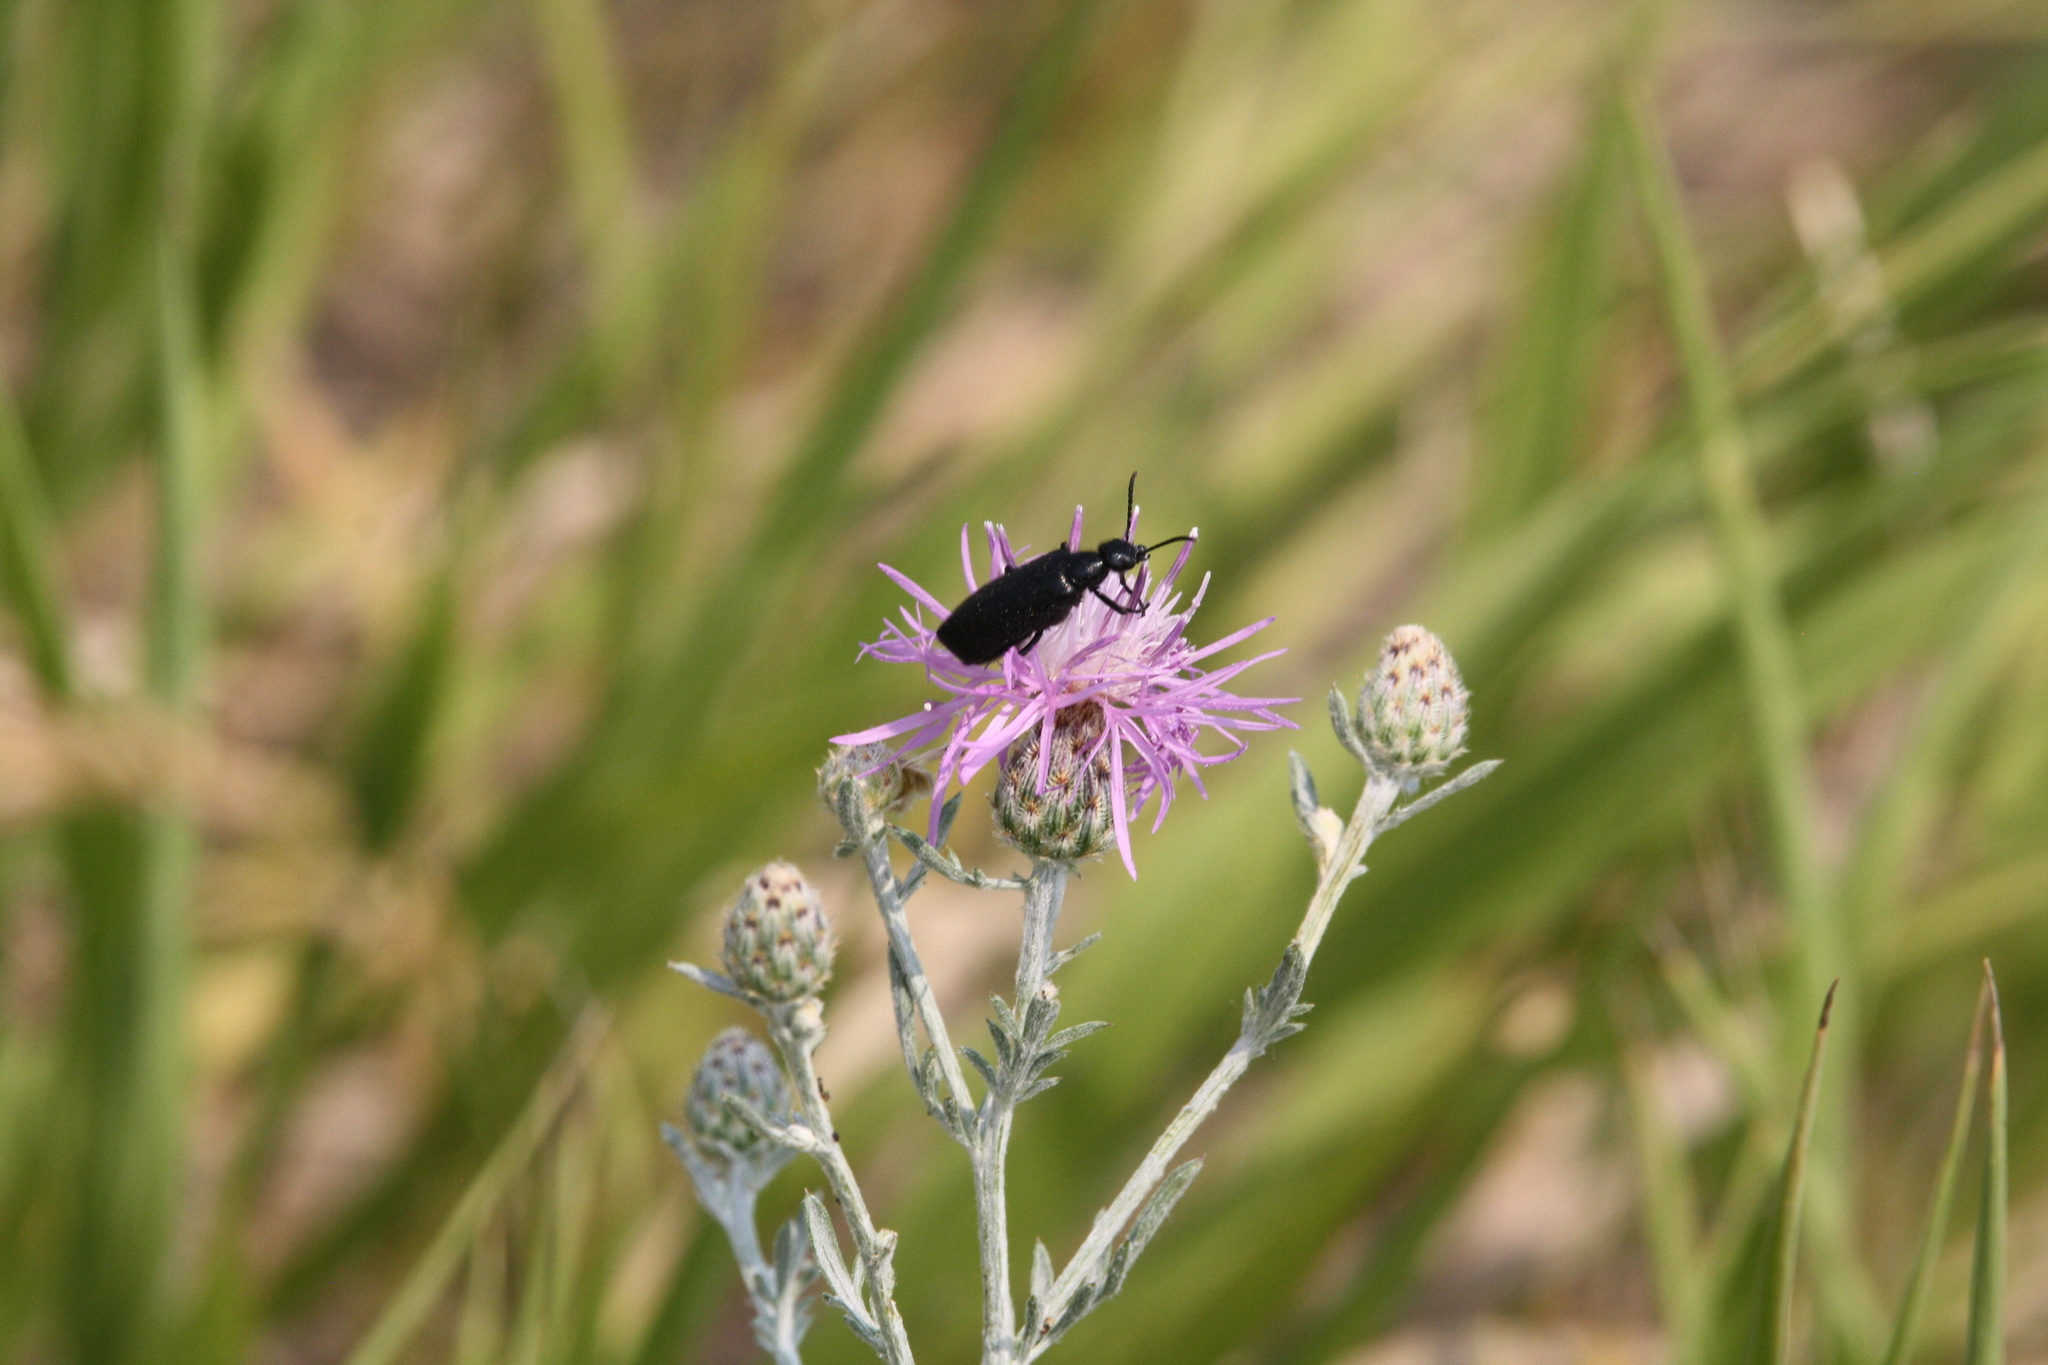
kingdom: Animalia
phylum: Arthropoda
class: Insecta
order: Coleoptera
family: Meloidae
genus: Epicauta
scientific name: Epicauta puncticollis
